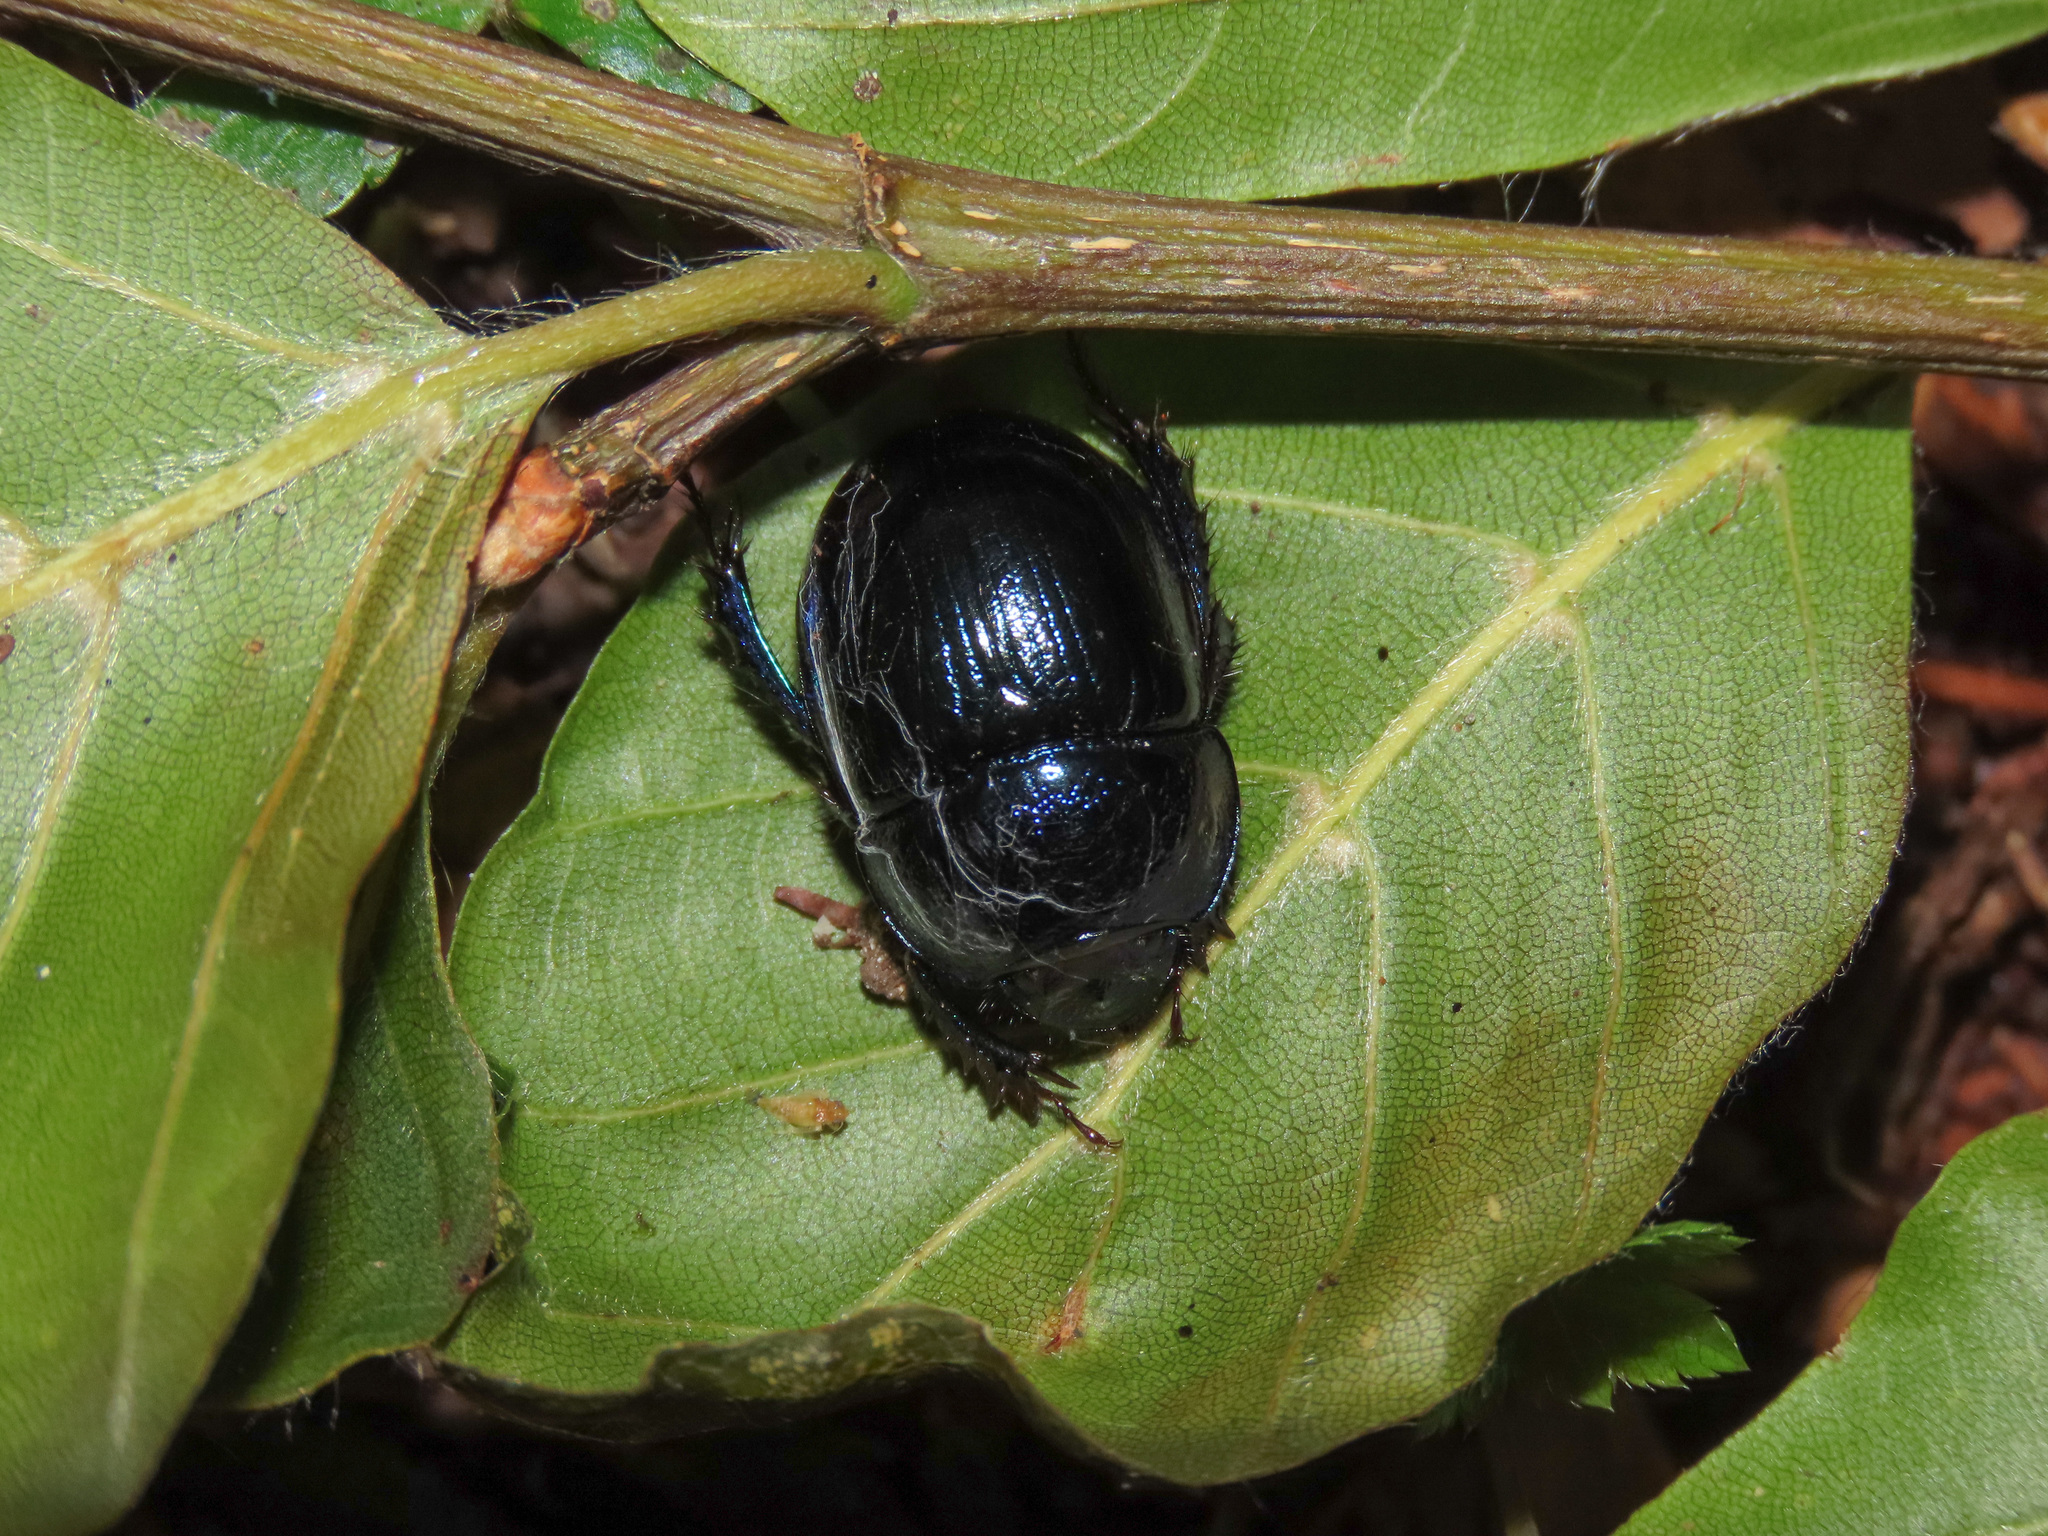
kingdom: Animalia
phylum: Arthropoda
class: Insecta
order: Coleoptera
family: Geotrupidae
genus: Anoplotrupes
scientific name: Anoplotrupes stercorosus
